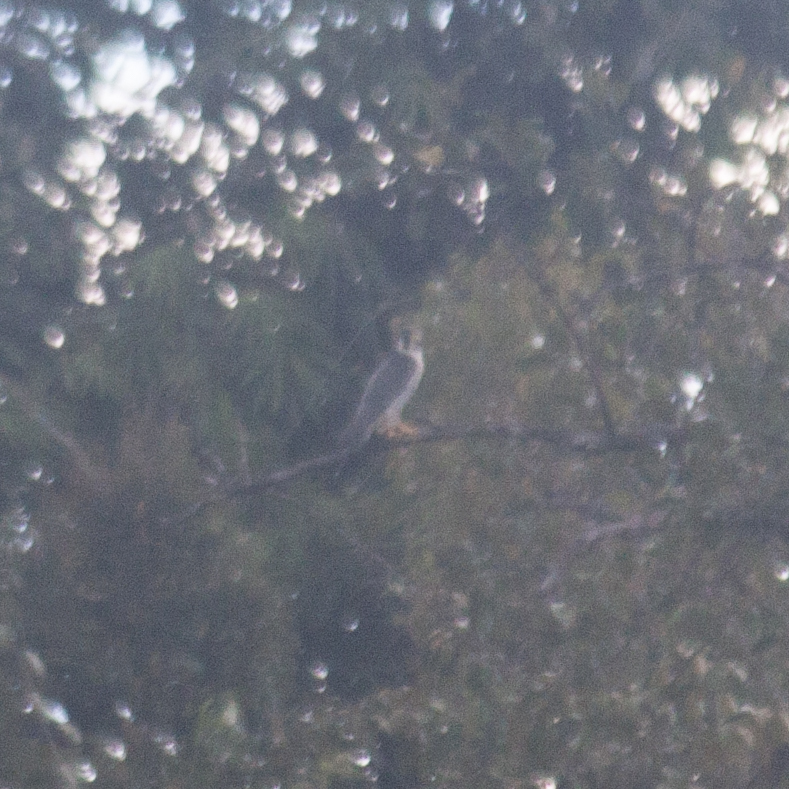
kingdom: Animalia
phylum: Chordata
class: Aves
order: Falconiformes
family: Falconidae
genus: Falco
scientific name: Falco peregrinus
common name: Peregrine falcon
